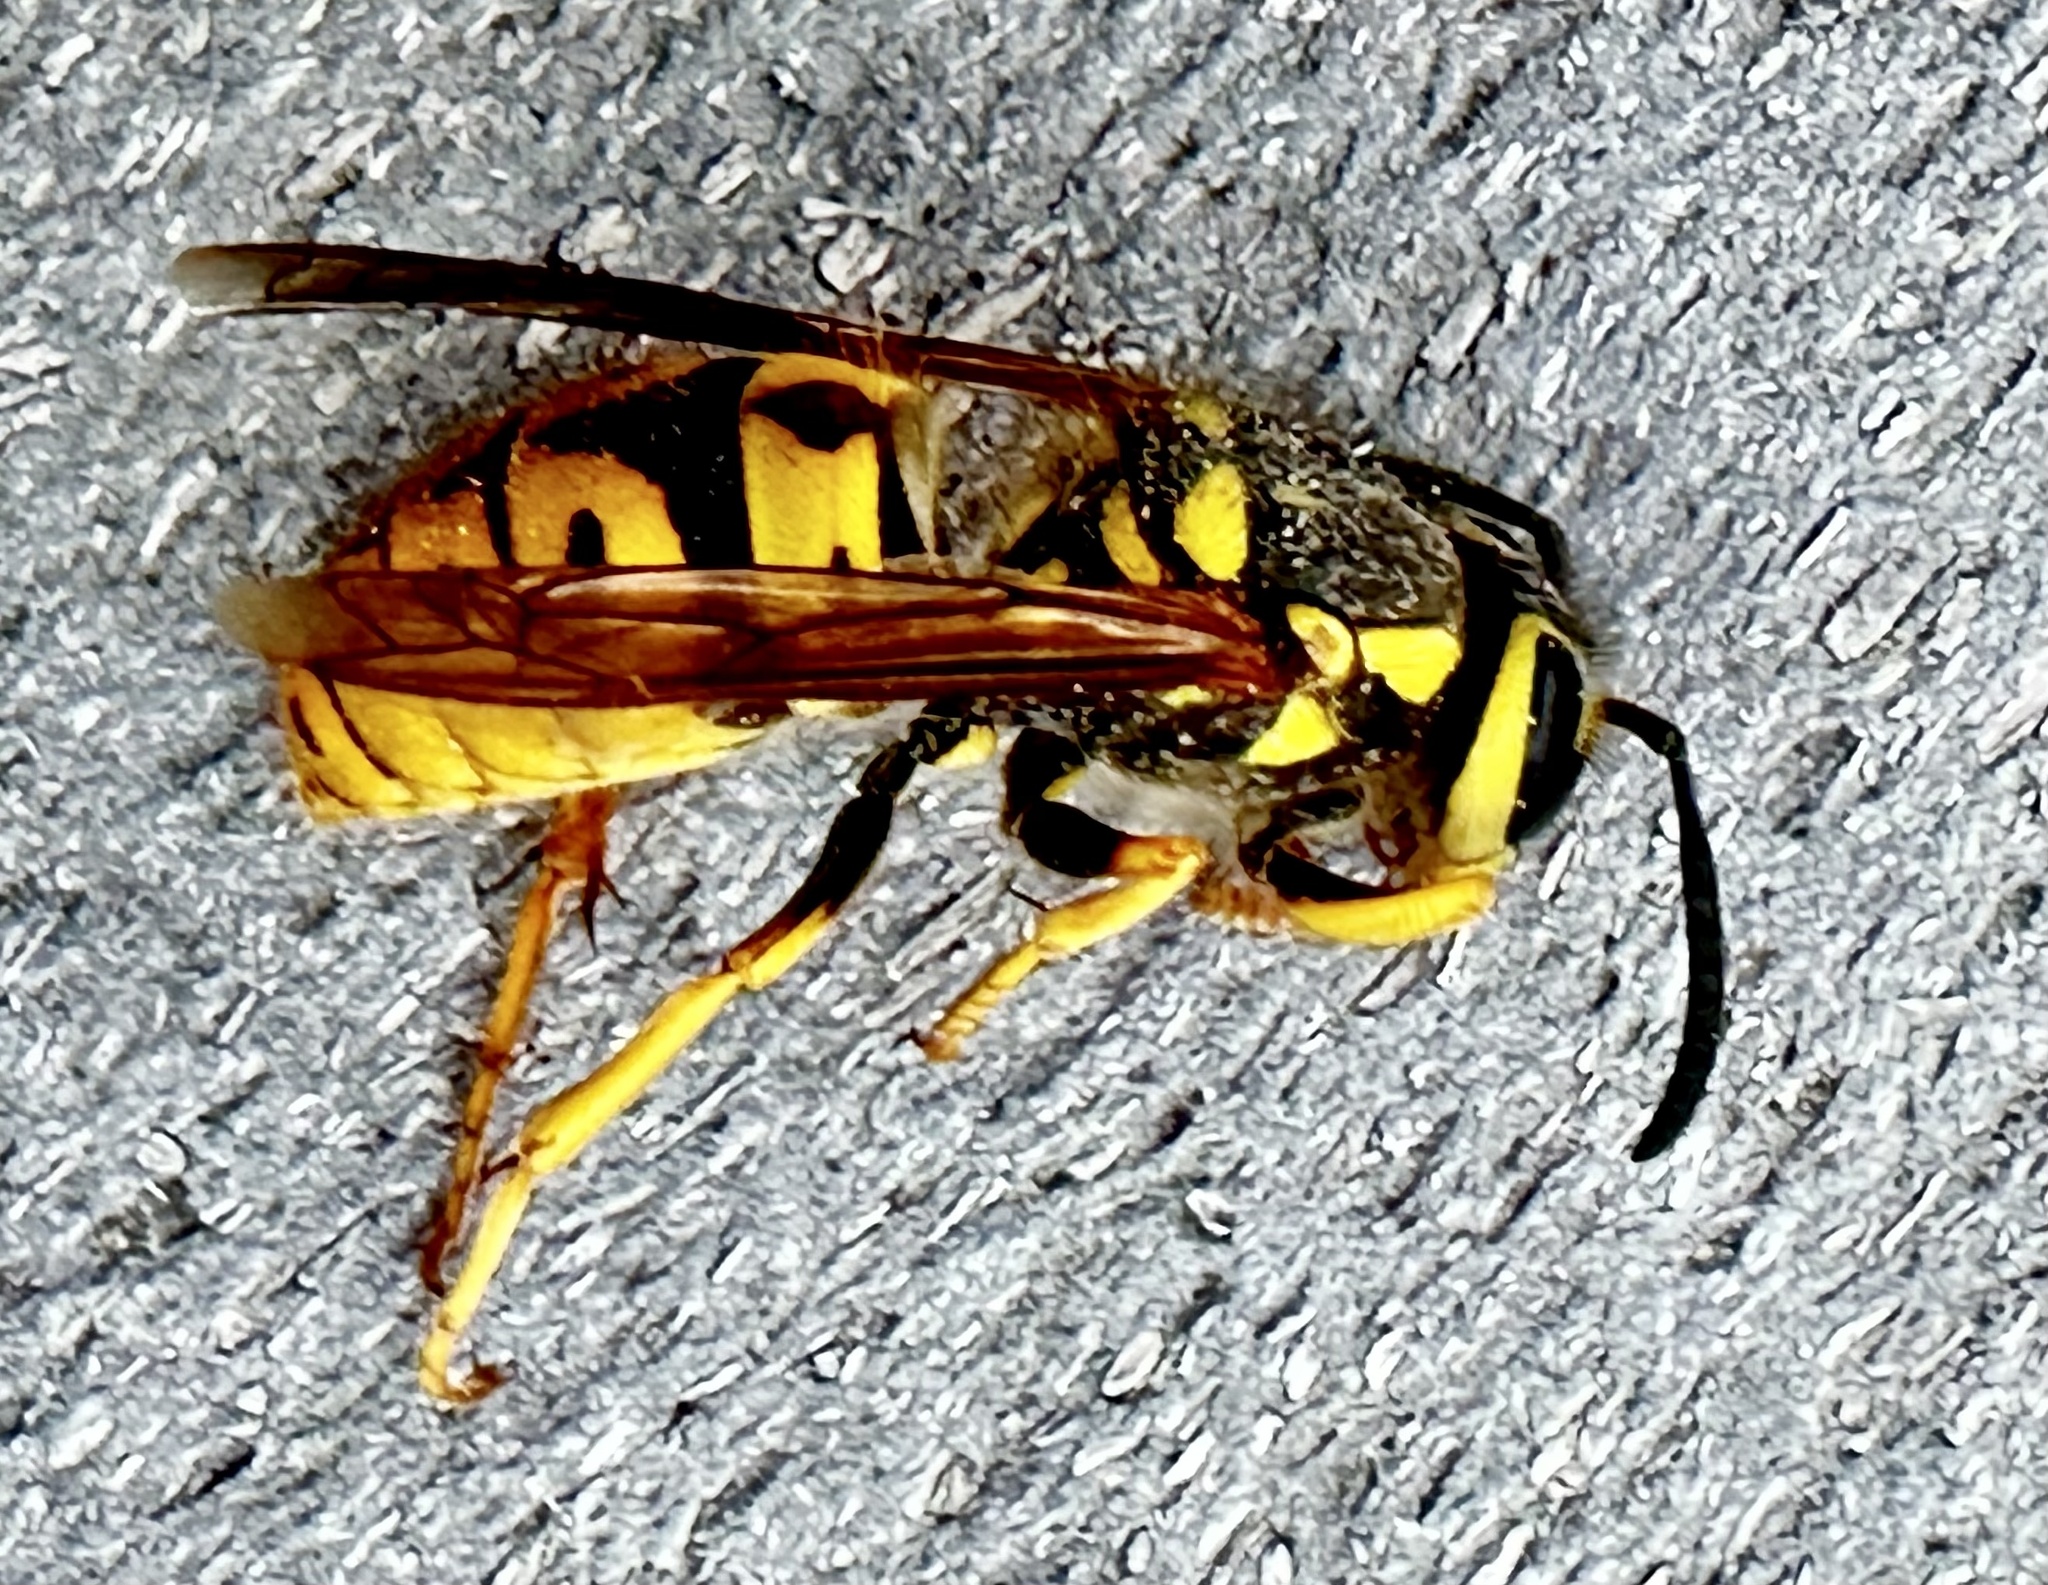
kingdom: Animalia
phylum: Arthropoda
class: Insecta
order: Hymenoptera
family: Vespidae
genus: Vespula
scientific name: Vespula pensylvanica
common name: Western yellowjacket
